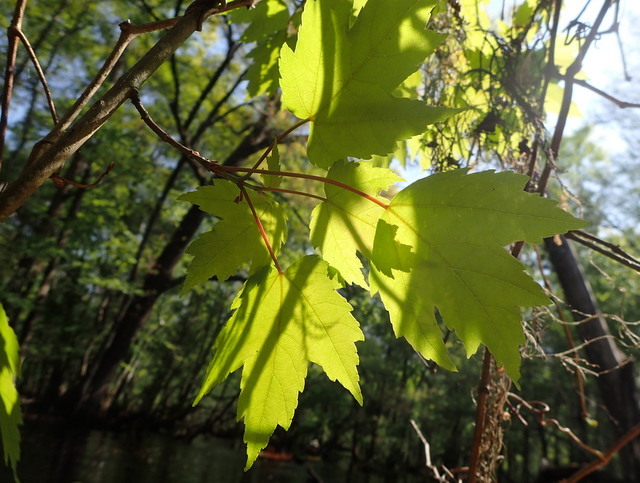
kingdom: Plantae
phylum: Tracheophyta
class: Magnoliopsida
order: Sapindales
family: Sapindaceae
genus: Acer
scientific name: Acer rubrum
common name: Red maple
